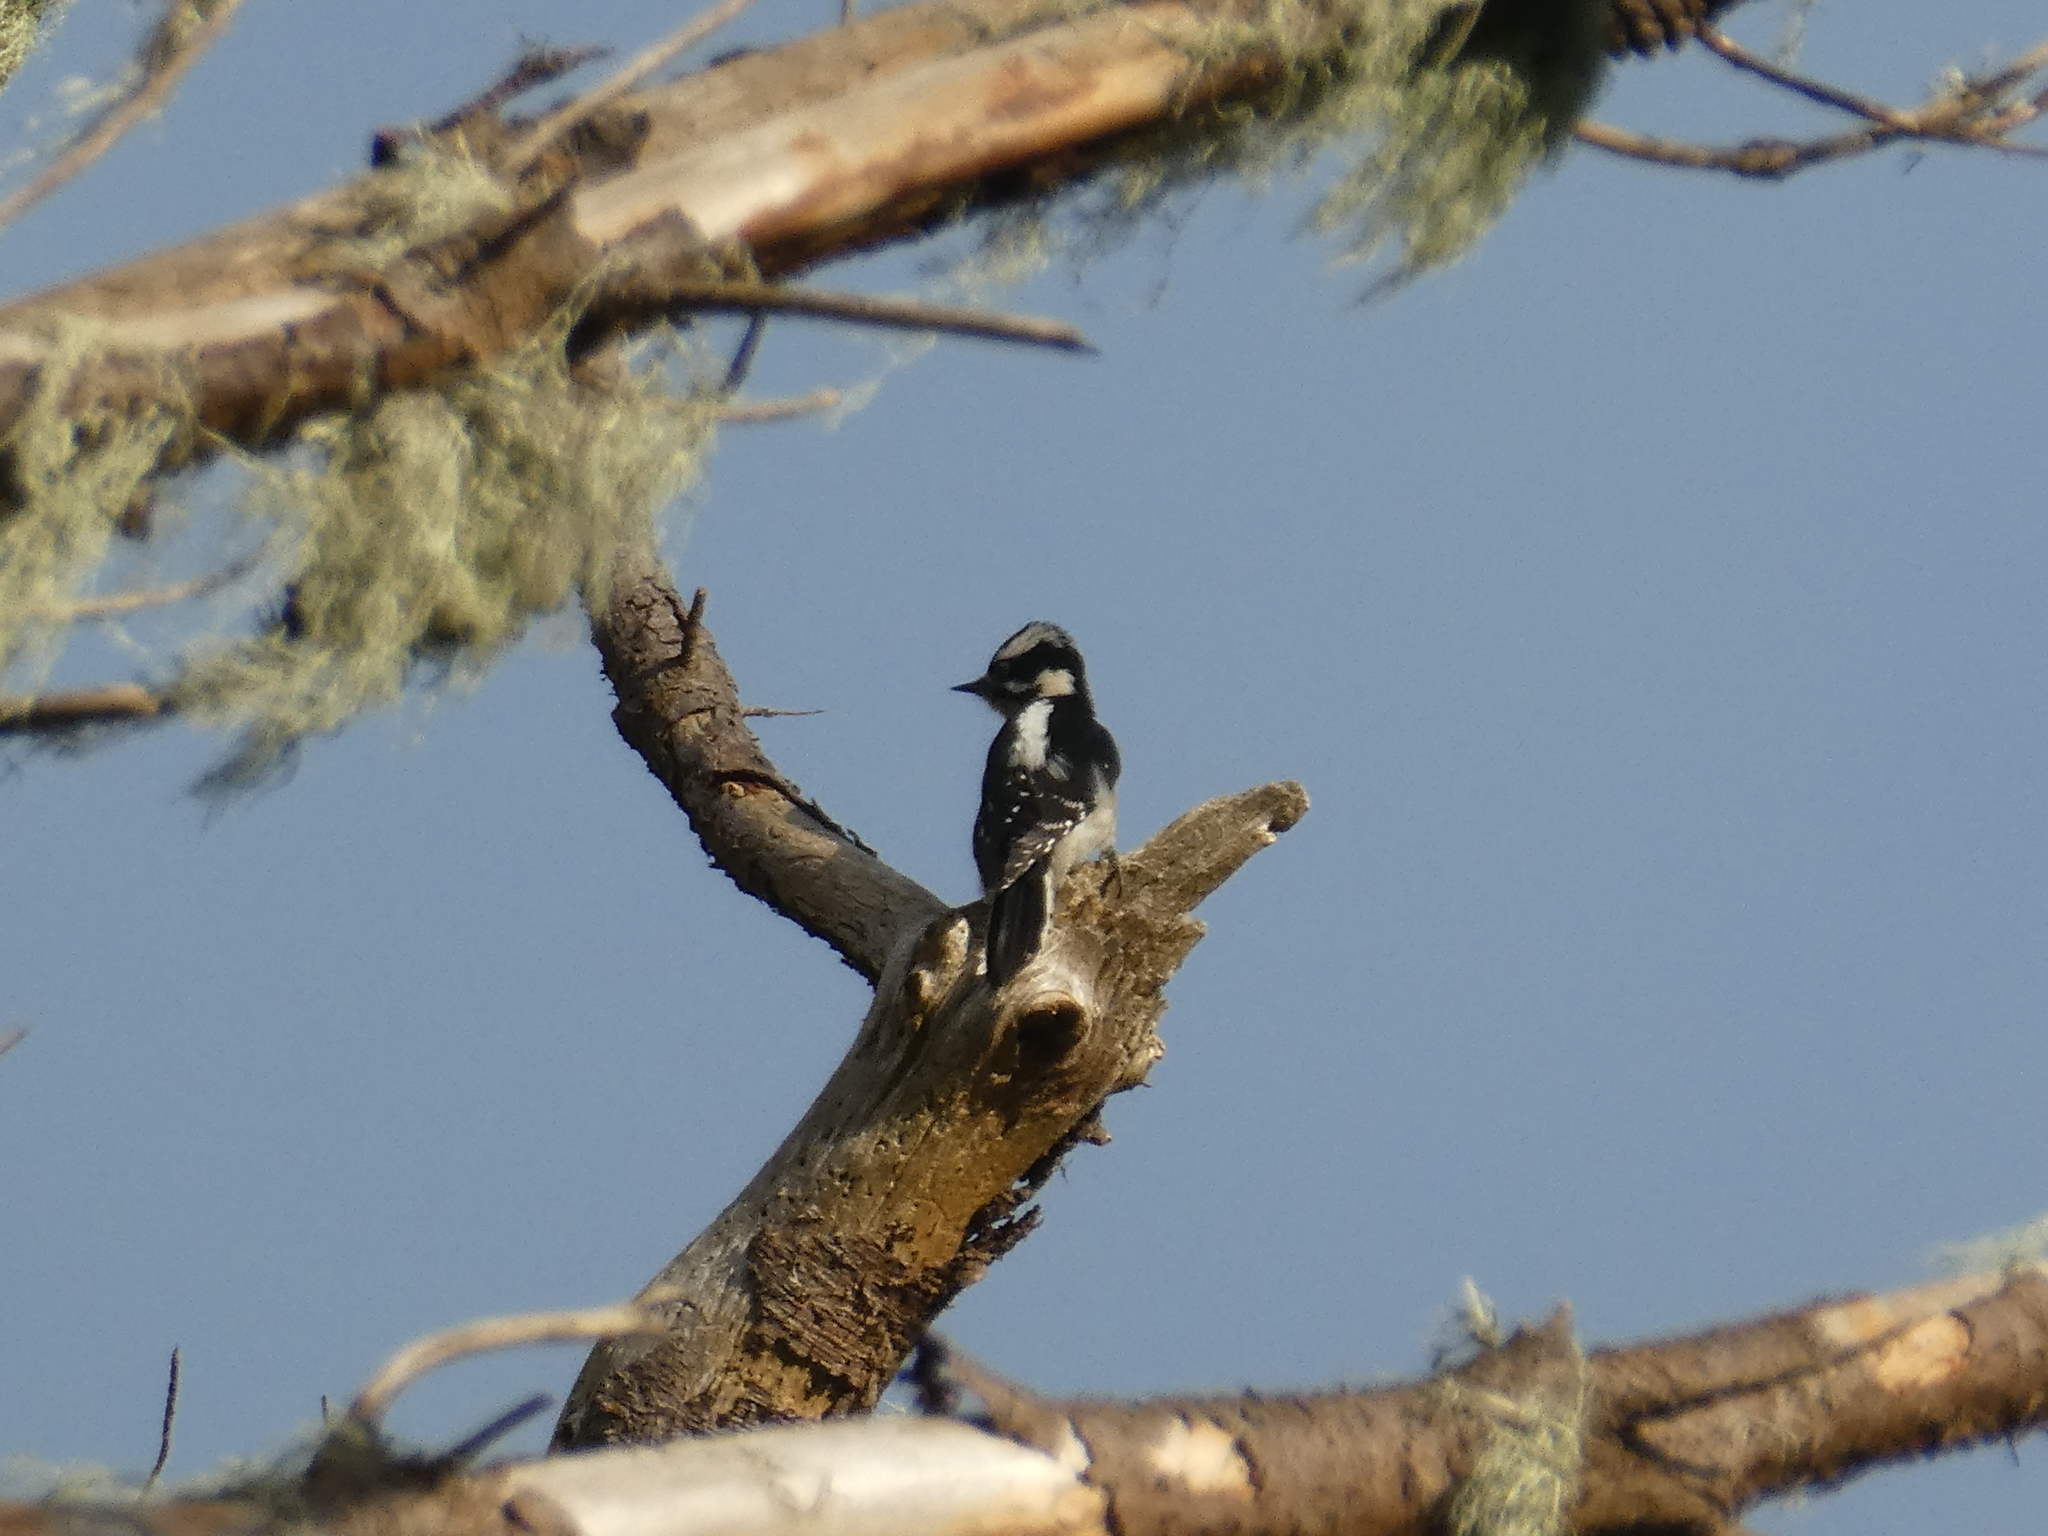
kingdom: Animalia
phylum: Chordata
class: Aves
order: Piciformes
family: Picidae
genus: Dryobates
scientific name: Dryobates pubescens
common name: Downy woodpecker
